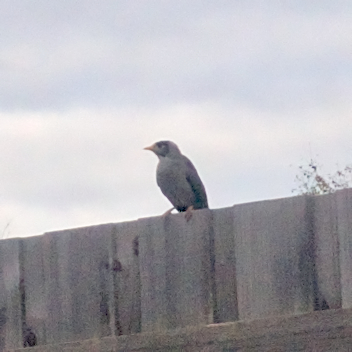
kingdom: Animalia
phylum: Chordata
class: Aves
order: Passeriformes
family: Meliphagidae
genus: Manorina
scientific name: Manorina melanocephala
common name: Noisy miner
